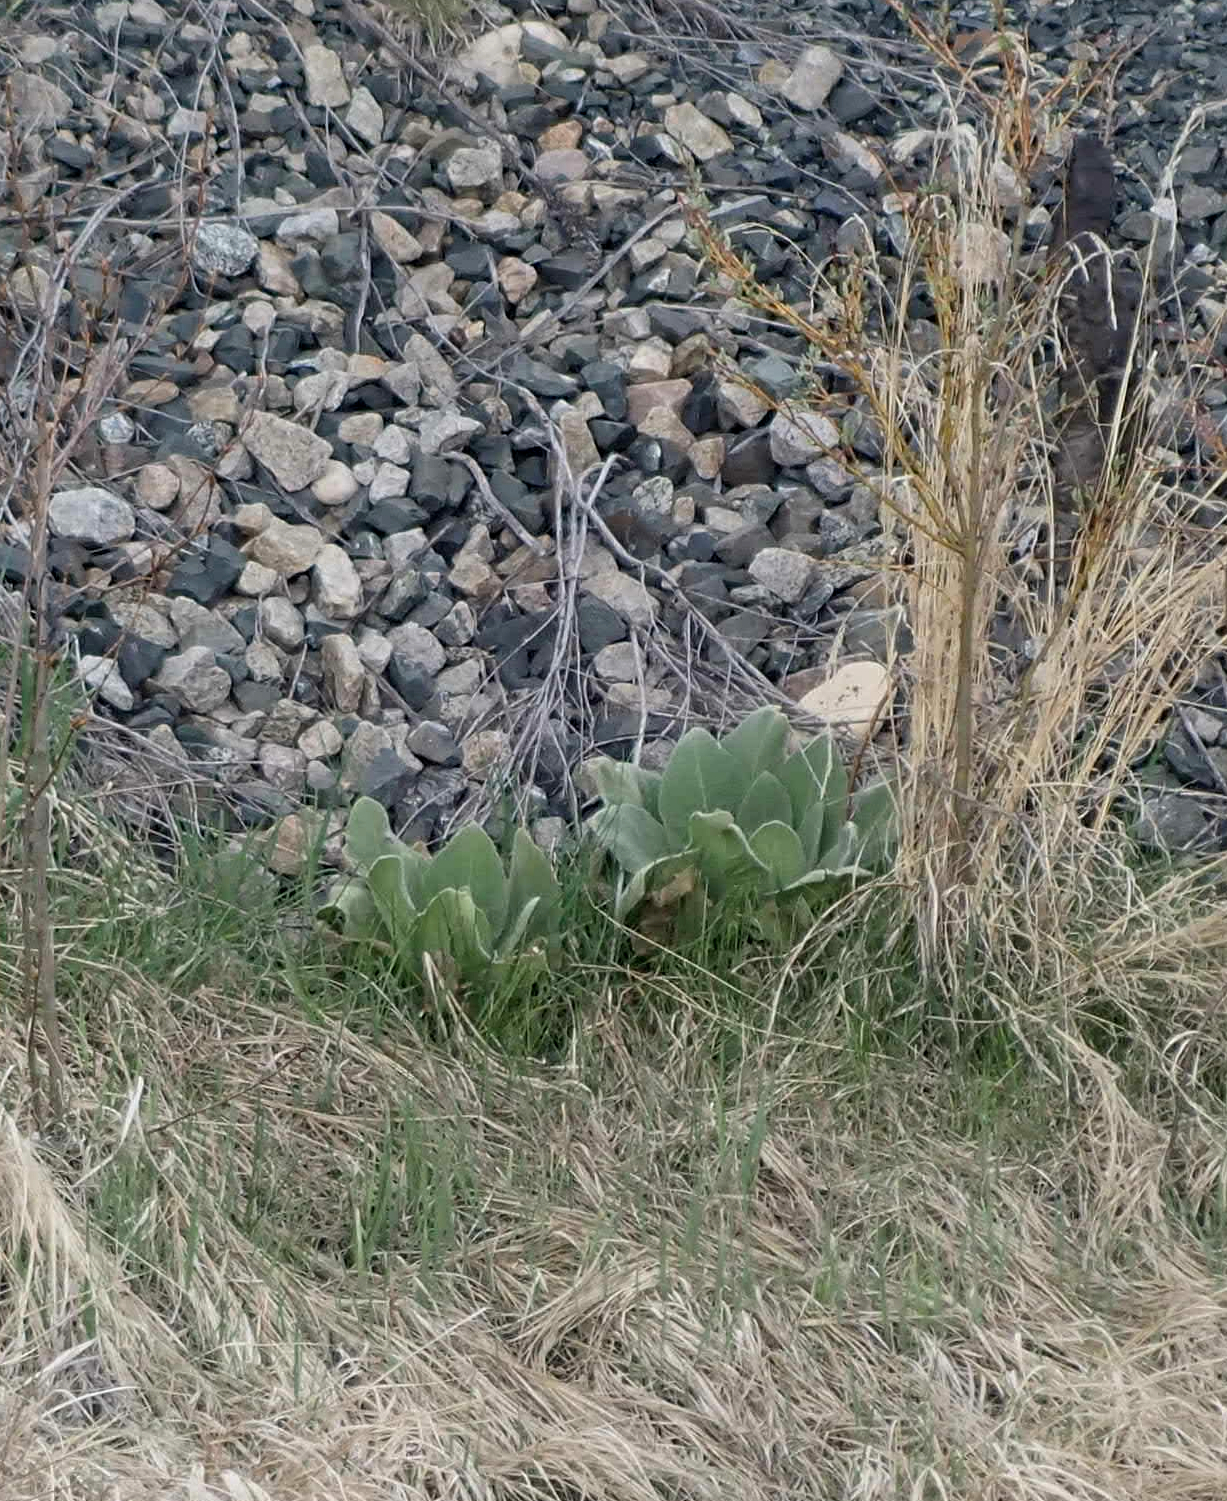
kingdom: Plantae
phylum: Tracheophyta
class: Magnoliopsida
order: Lamiales
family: Scrophulariaceae
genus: Verbascum
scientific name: Verbascum thapsus
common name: Common mullein
